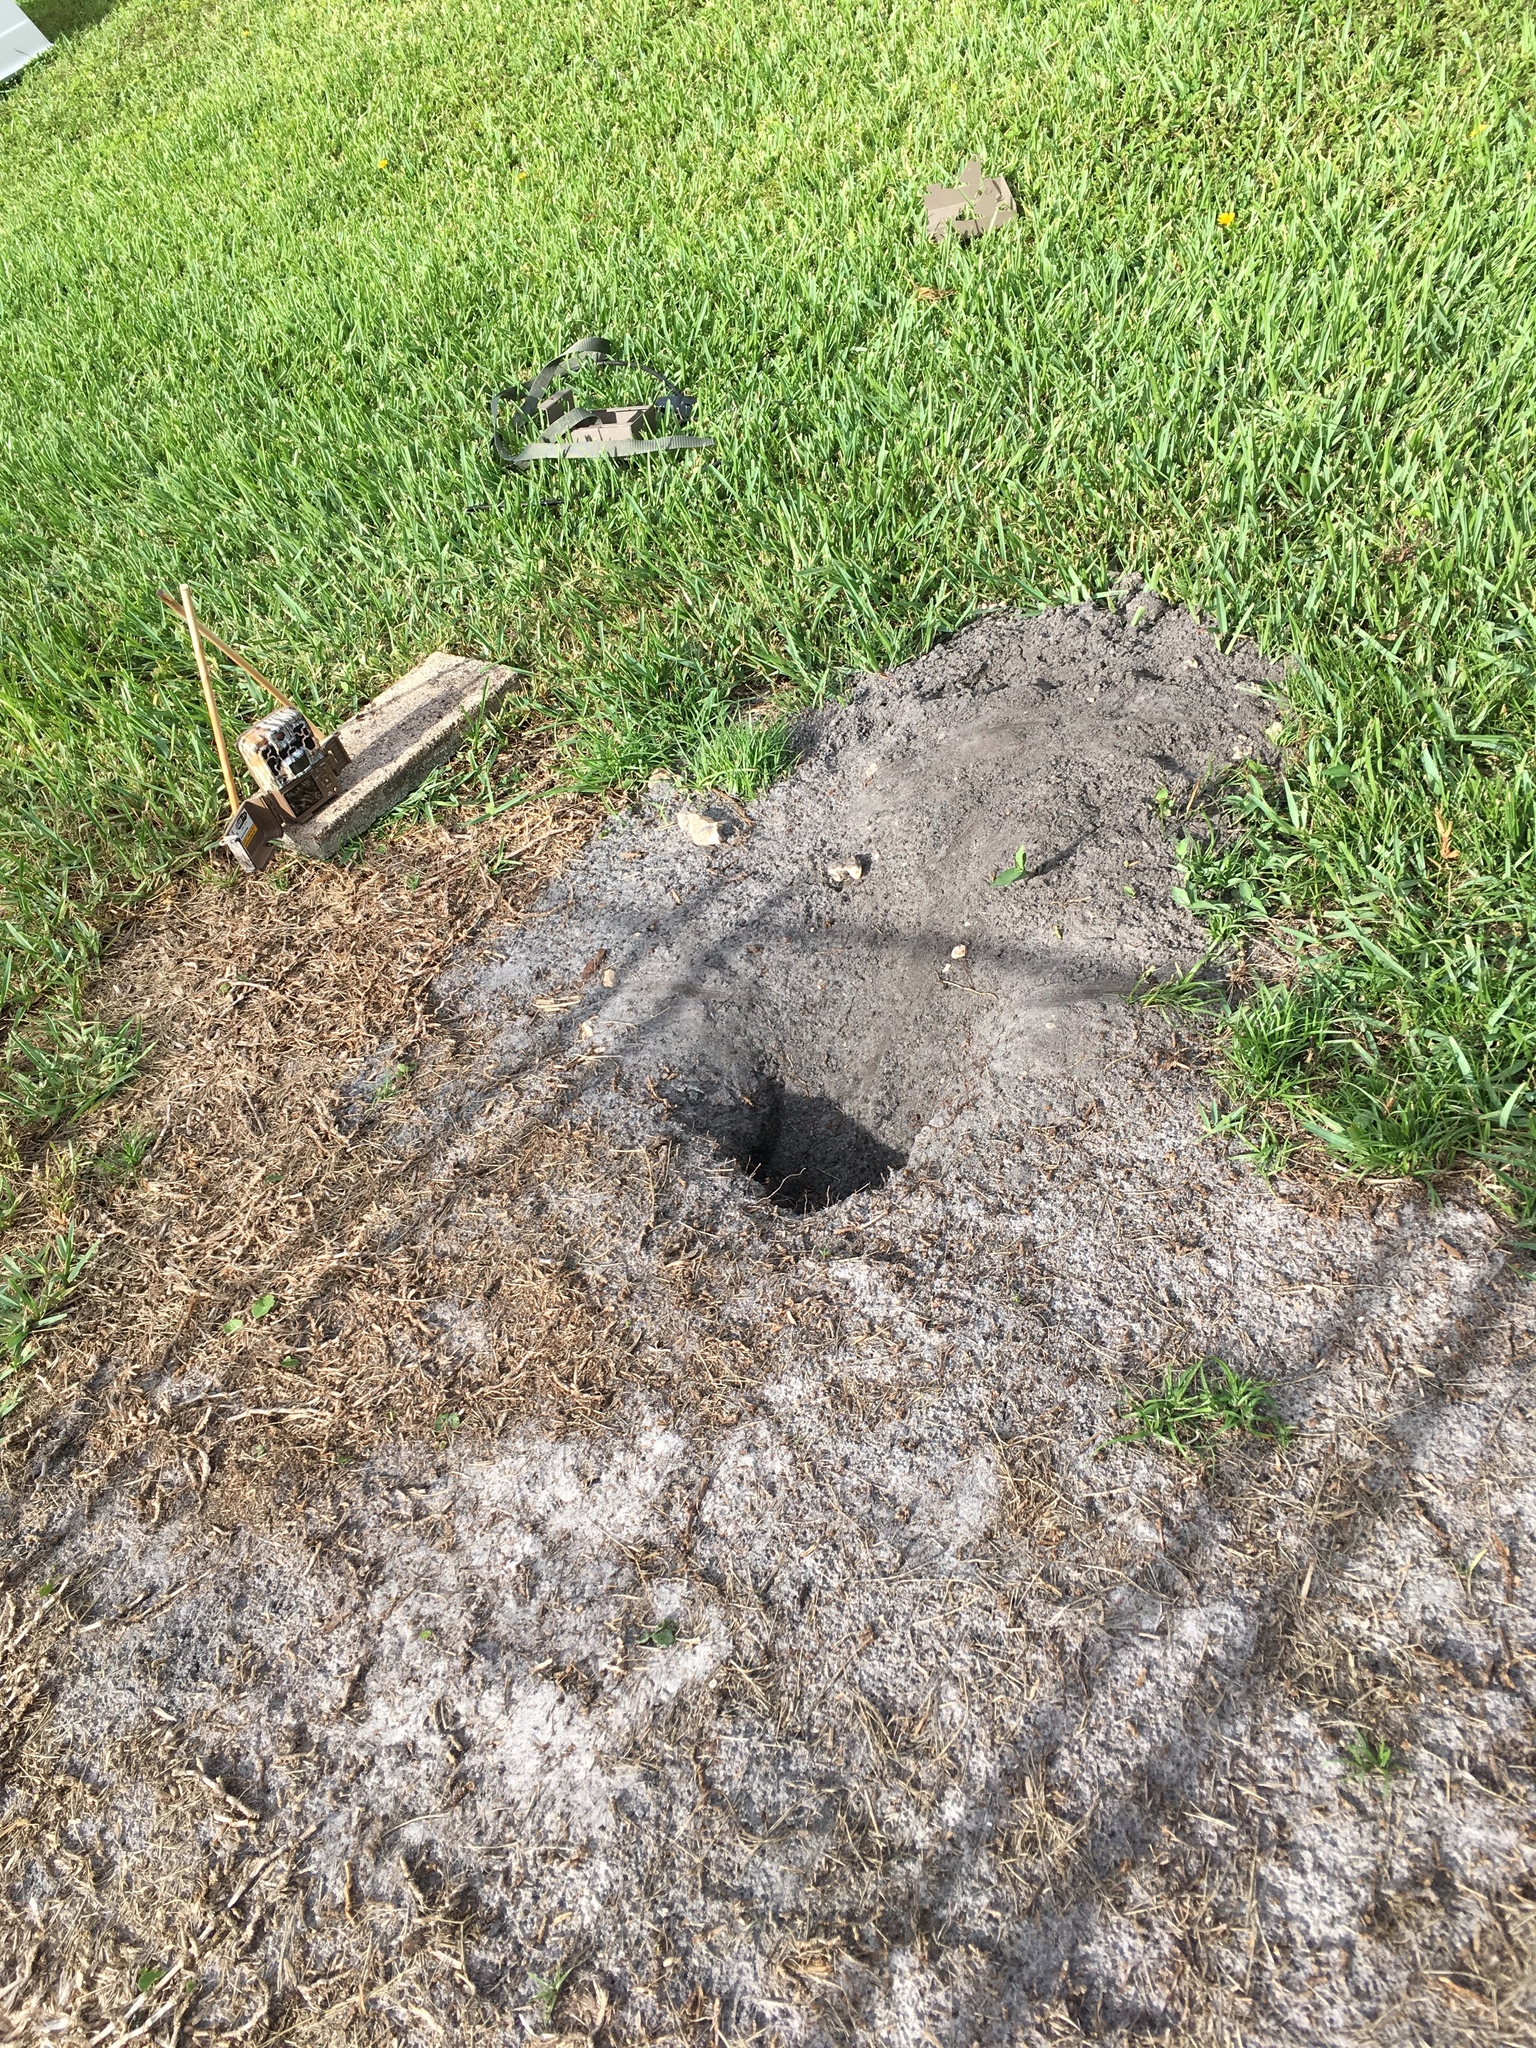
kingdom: Animalia
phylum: Chordata
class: Squamata
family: Iguanidae
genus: Iguana
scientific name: Iguana iguana
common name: Green iguana
